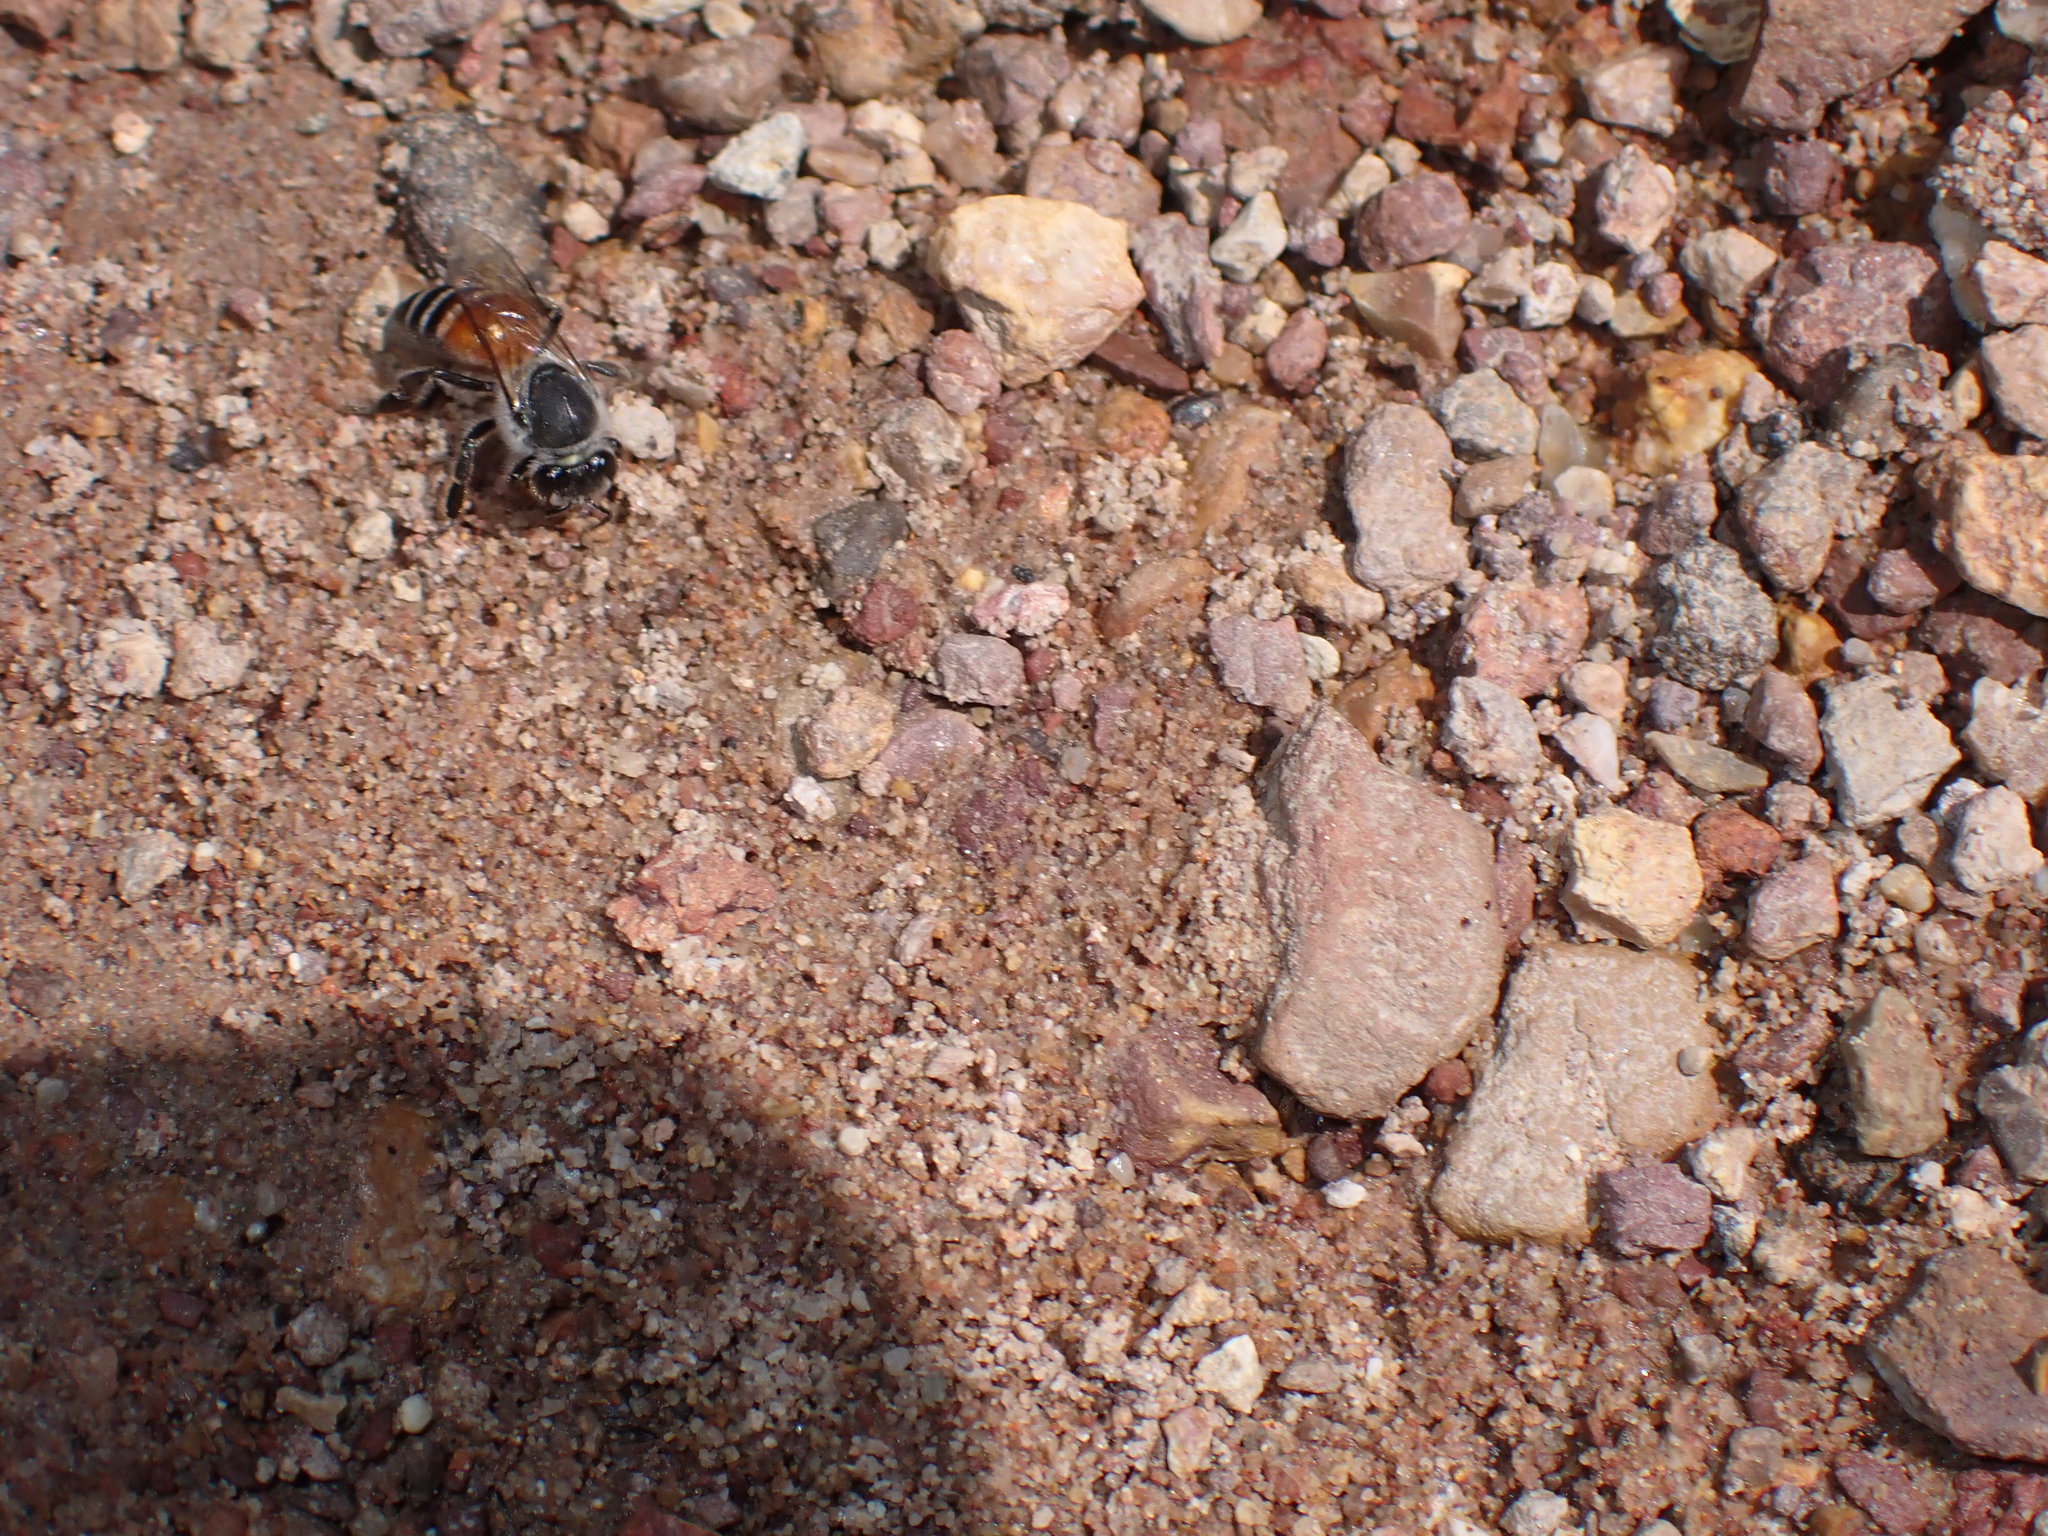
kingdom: Animalia
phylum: Arthropoda
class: Insecta
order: Hymenoptera
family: Apidae
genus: Apis
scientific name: Apis florea
